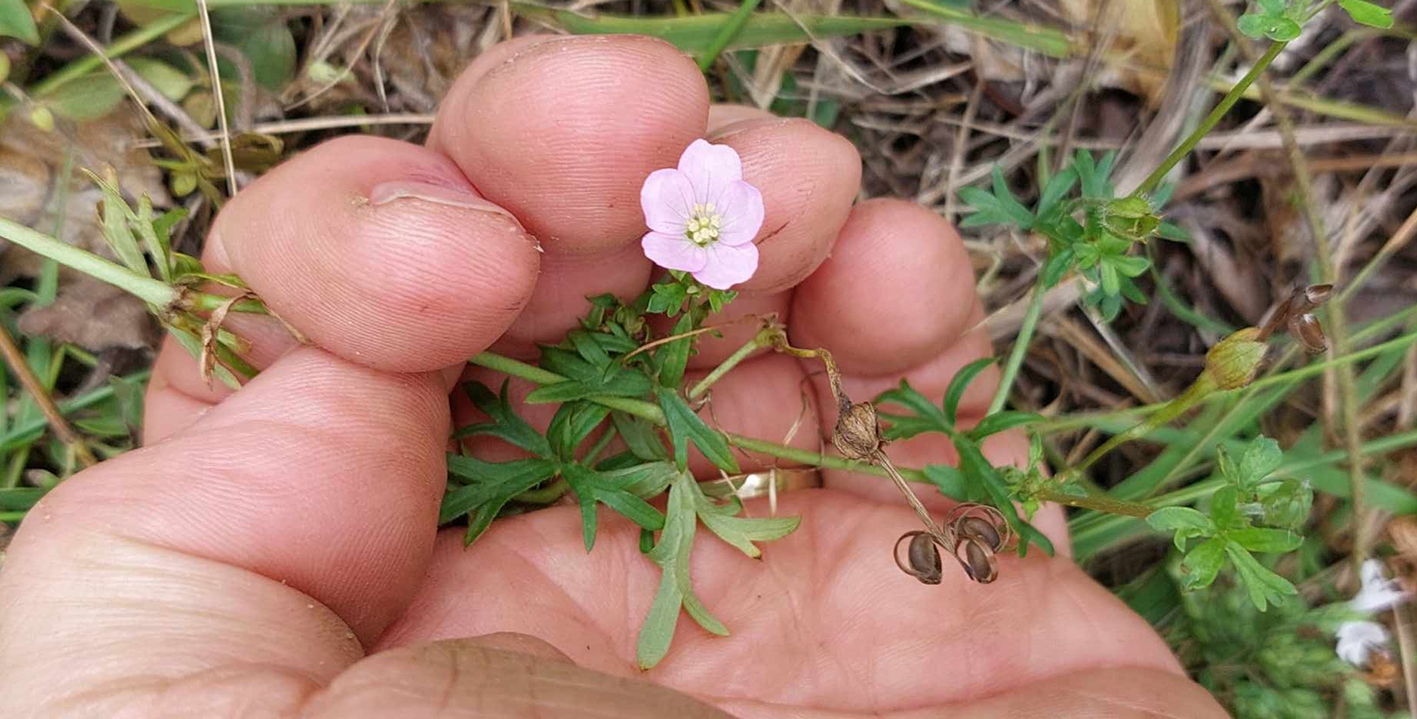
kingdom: Plantae
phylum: Tracheophyta
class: Magnoliopsida
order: Geraniales
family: Geraniaceae
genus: Geranium
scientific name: Geranium solanderi
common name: Solander's geranium
